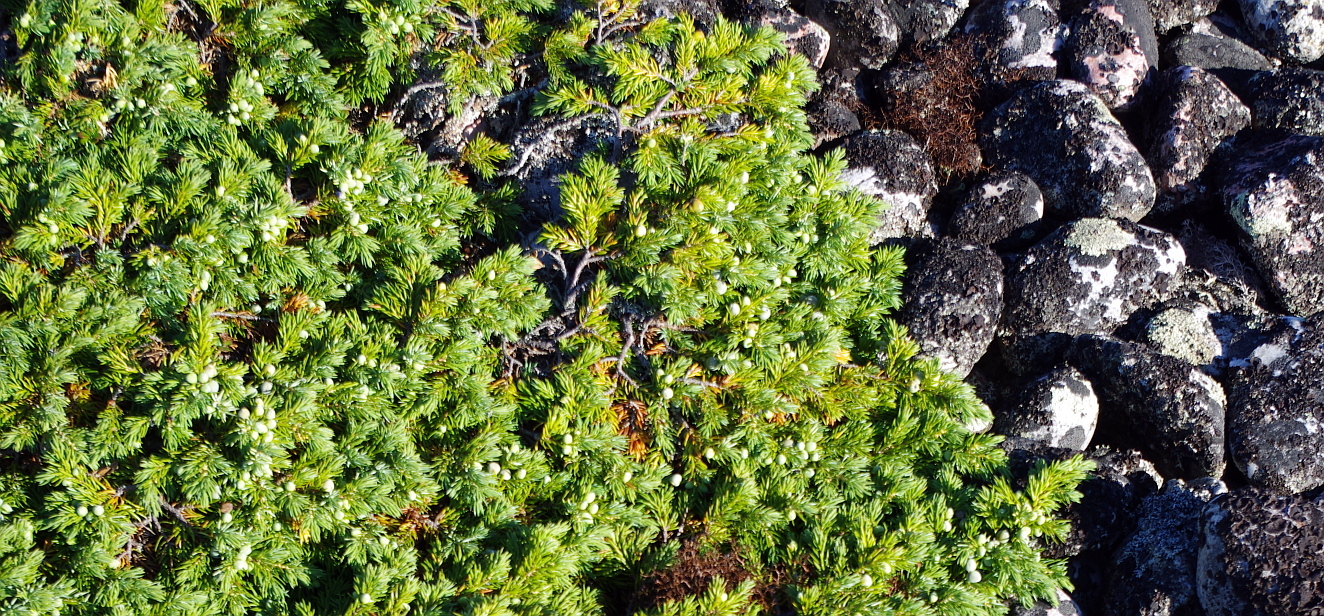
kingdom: Plantae
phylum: Tracheophyta
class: Pinopsida
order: Pinales
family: Cupressaceae
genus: Juniperus
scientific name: Juniperus communis
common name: Common juniper
